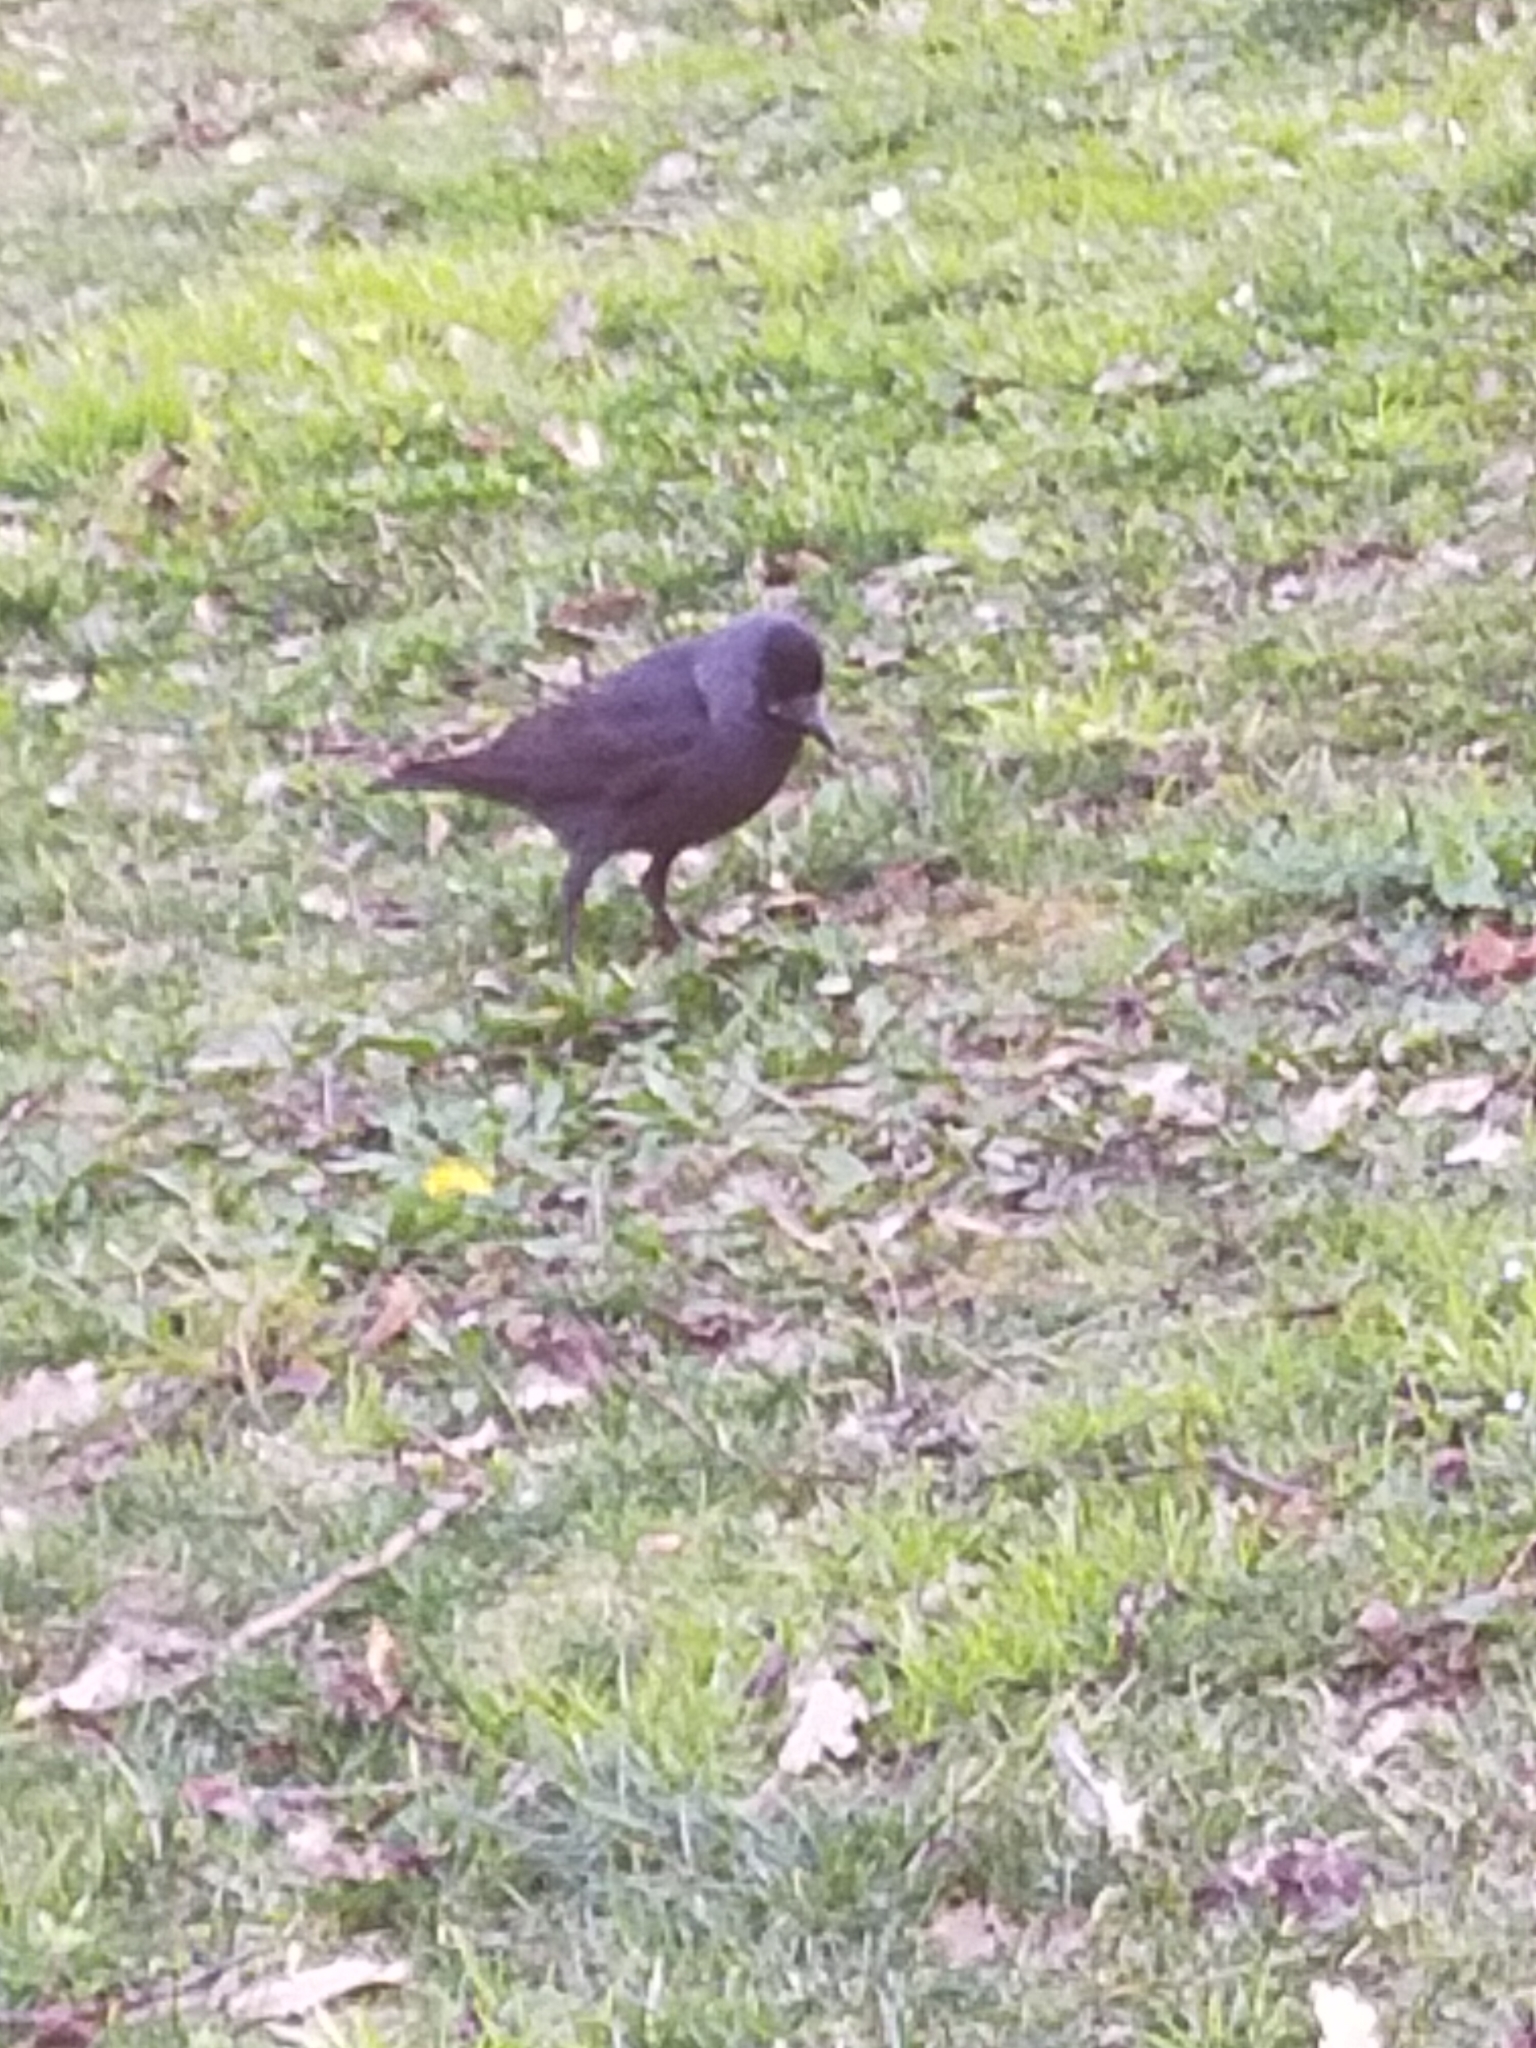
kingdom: Animalia
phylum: Chordata
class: Aves
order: Passeriformes
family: Corvidae
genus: Coloeus
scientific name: Coloeus monedula
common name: Western jackdaw
